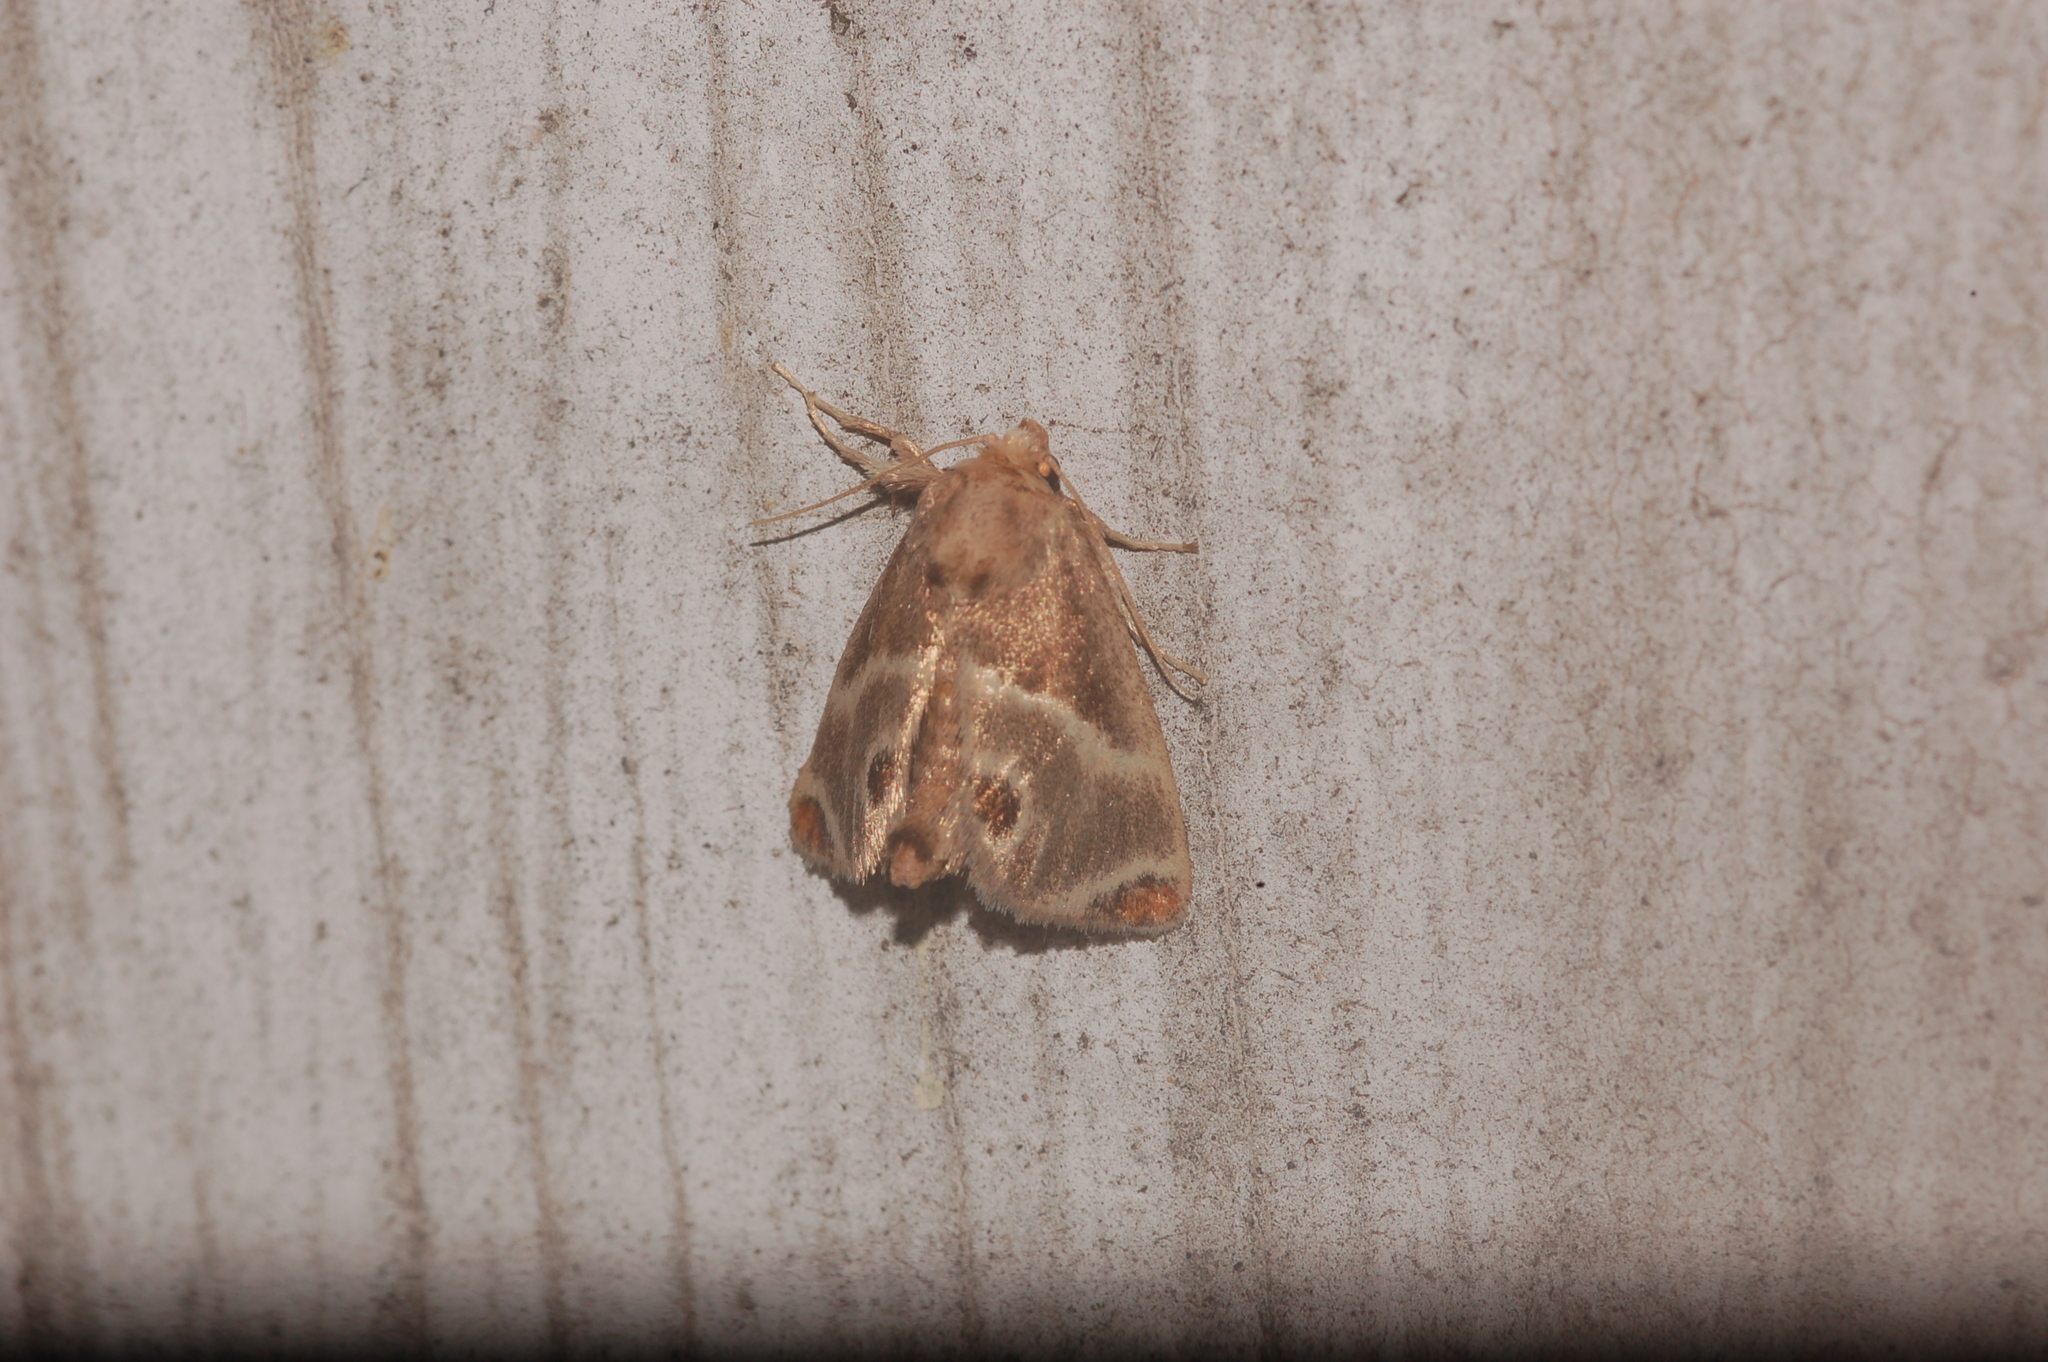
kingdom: Animalia
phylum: Arthropoda
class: Insecta
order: Lepidoptera
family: Limacodidae
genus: Apoda
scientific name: Apoda biguttata
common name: Shagreened slug moth
